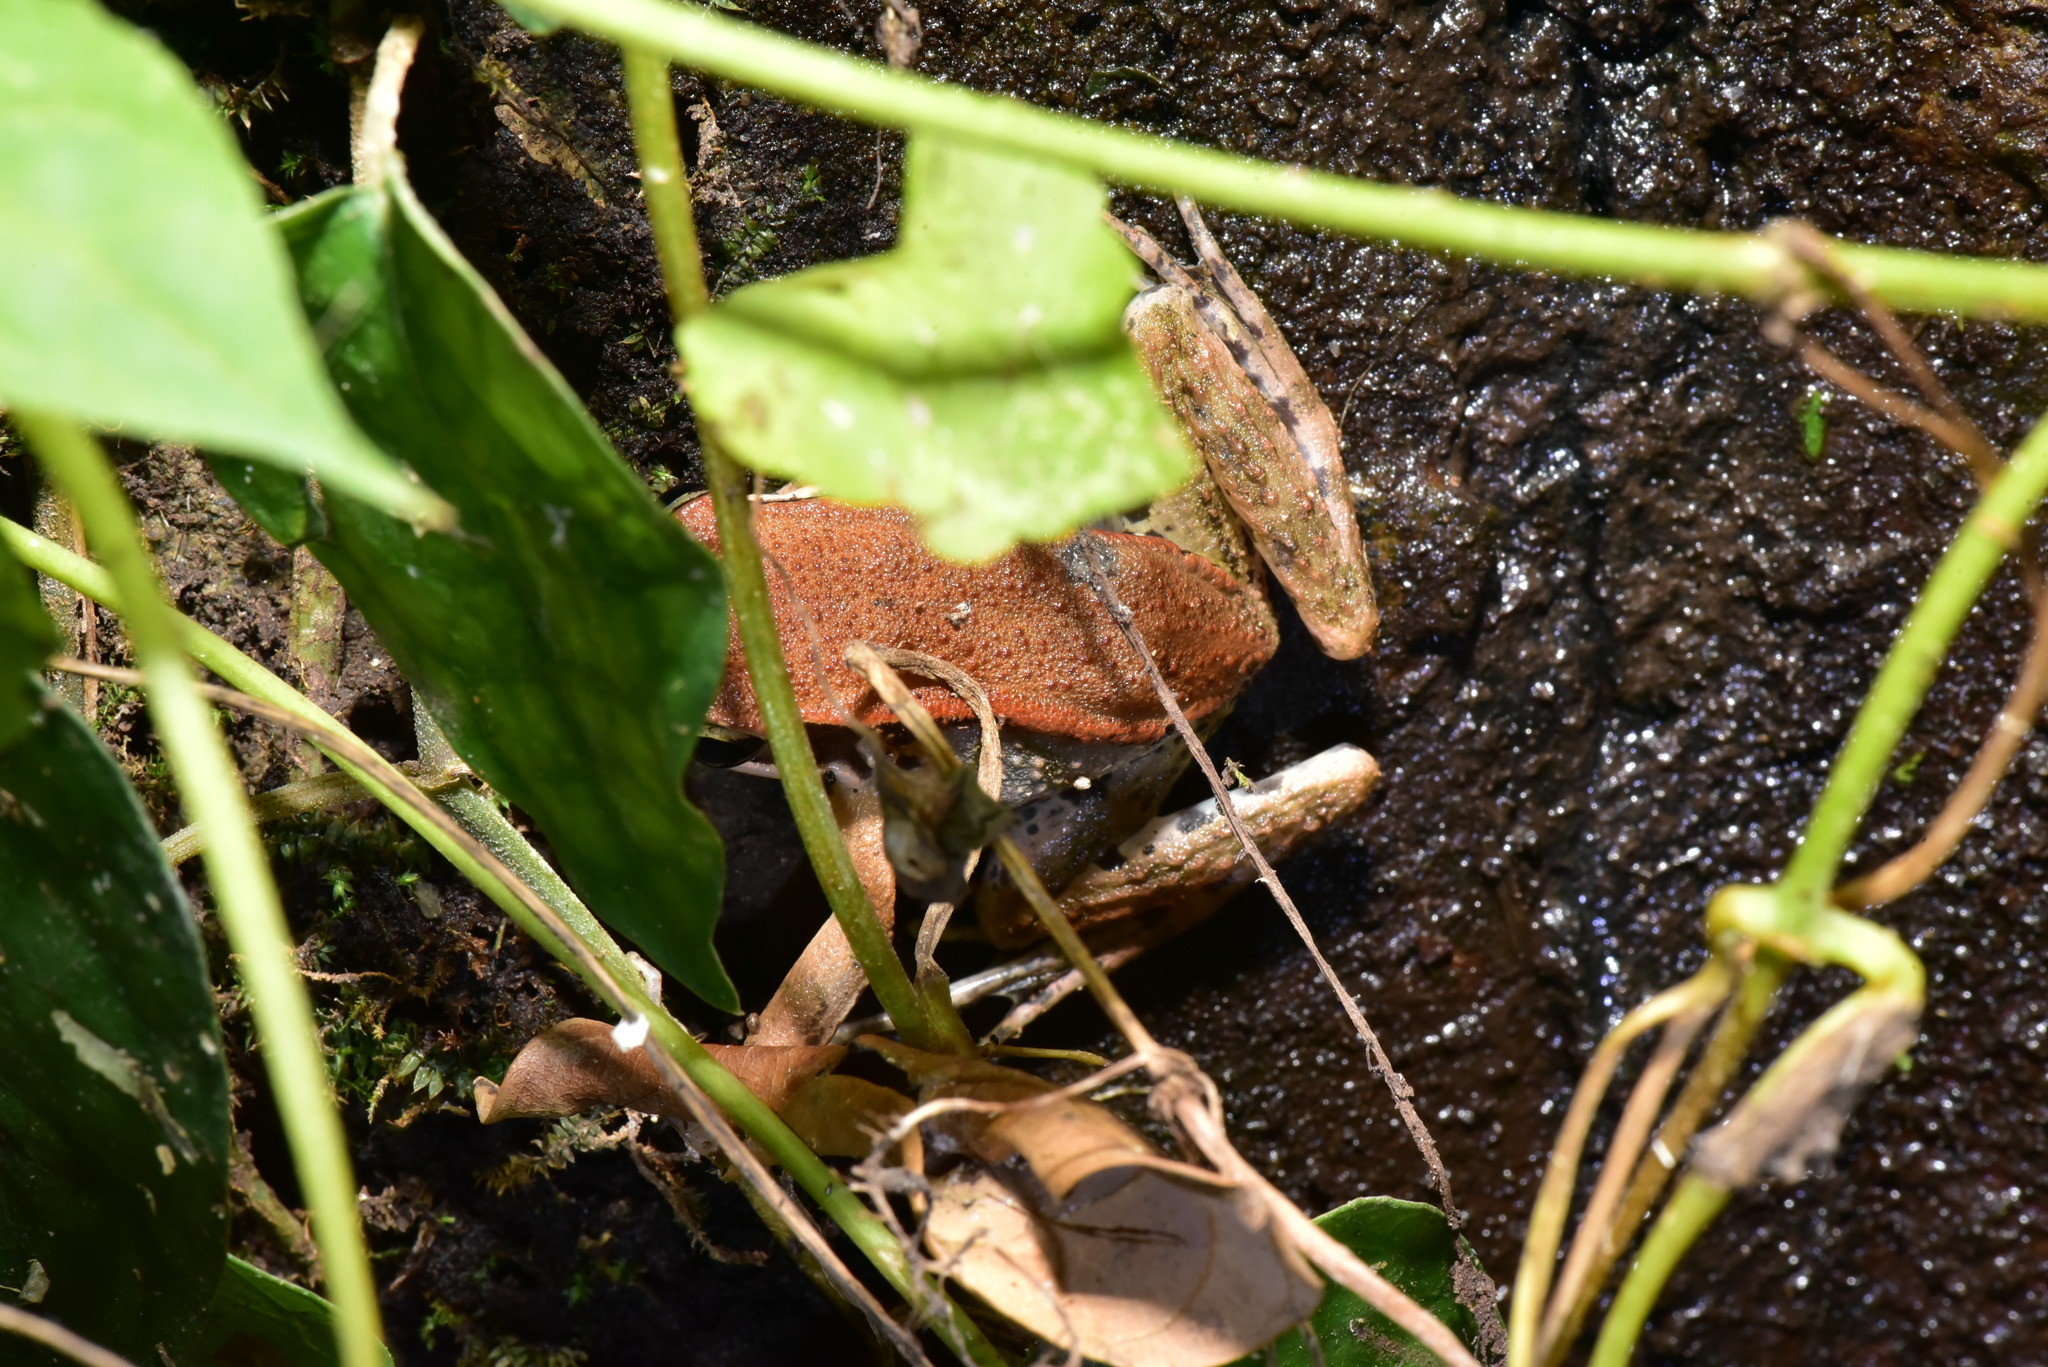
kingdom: Animalia
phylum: Chordata
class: Amphibia
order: Anura
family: Ranidae
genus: Hylarana
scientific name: Hylarana latouchii
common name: Broad-folded frog
